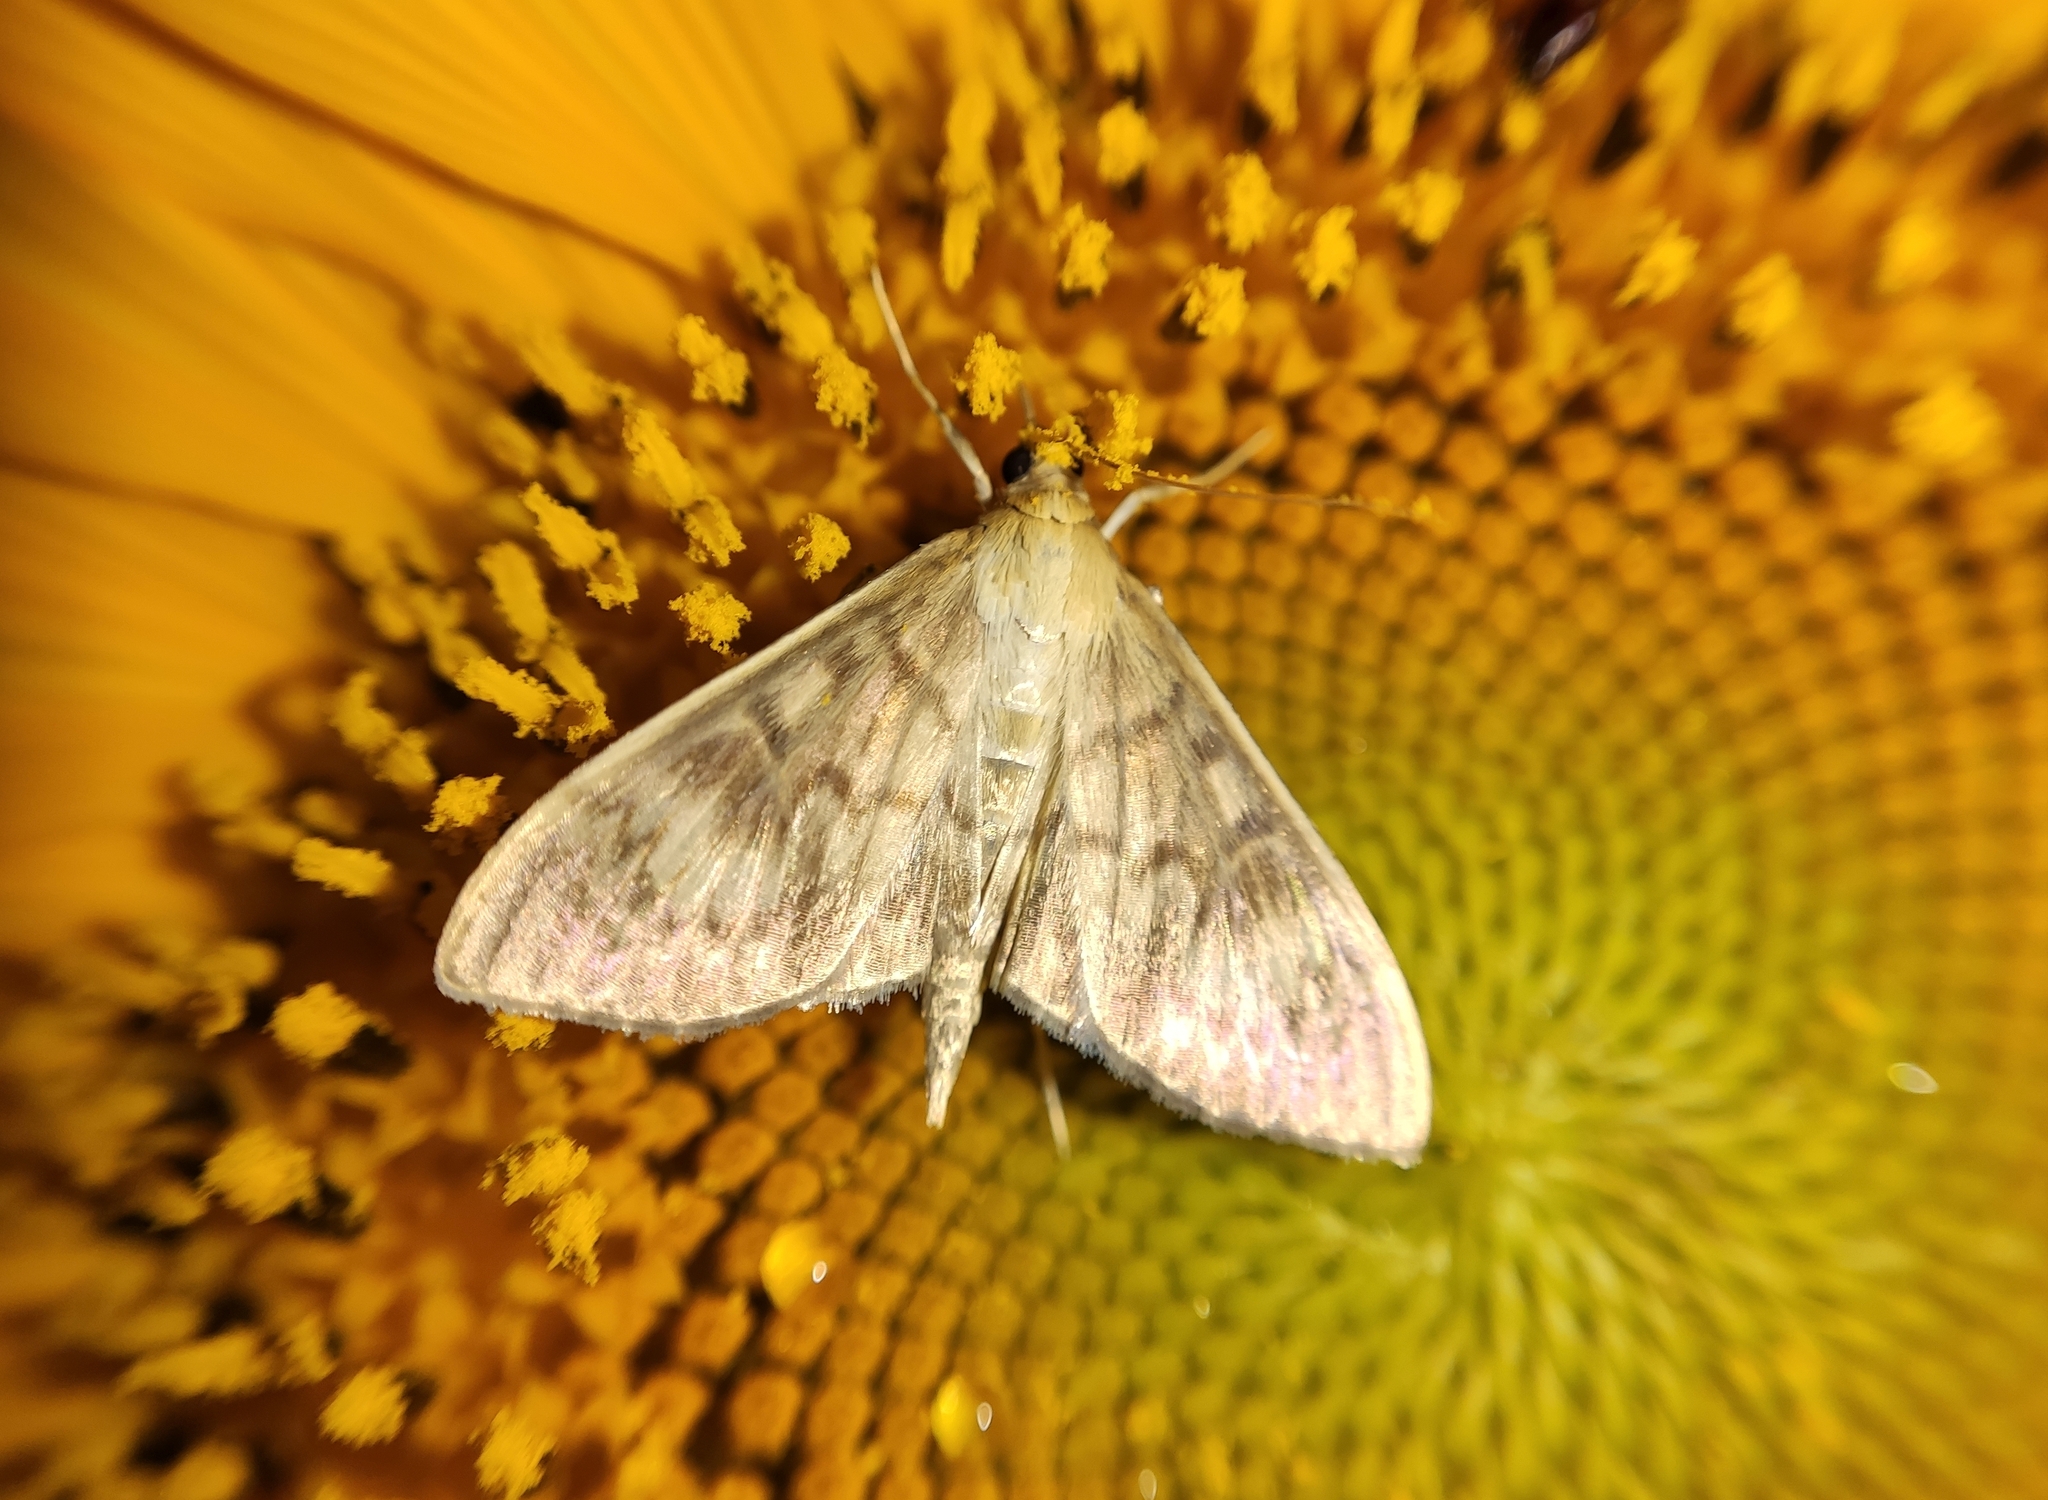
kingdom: Animalia
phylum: Arthropoda
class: Insecta
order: Lepidoptera
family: Crambidae
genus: Patania
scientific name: Patania ruralis
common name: Mother of pearl
